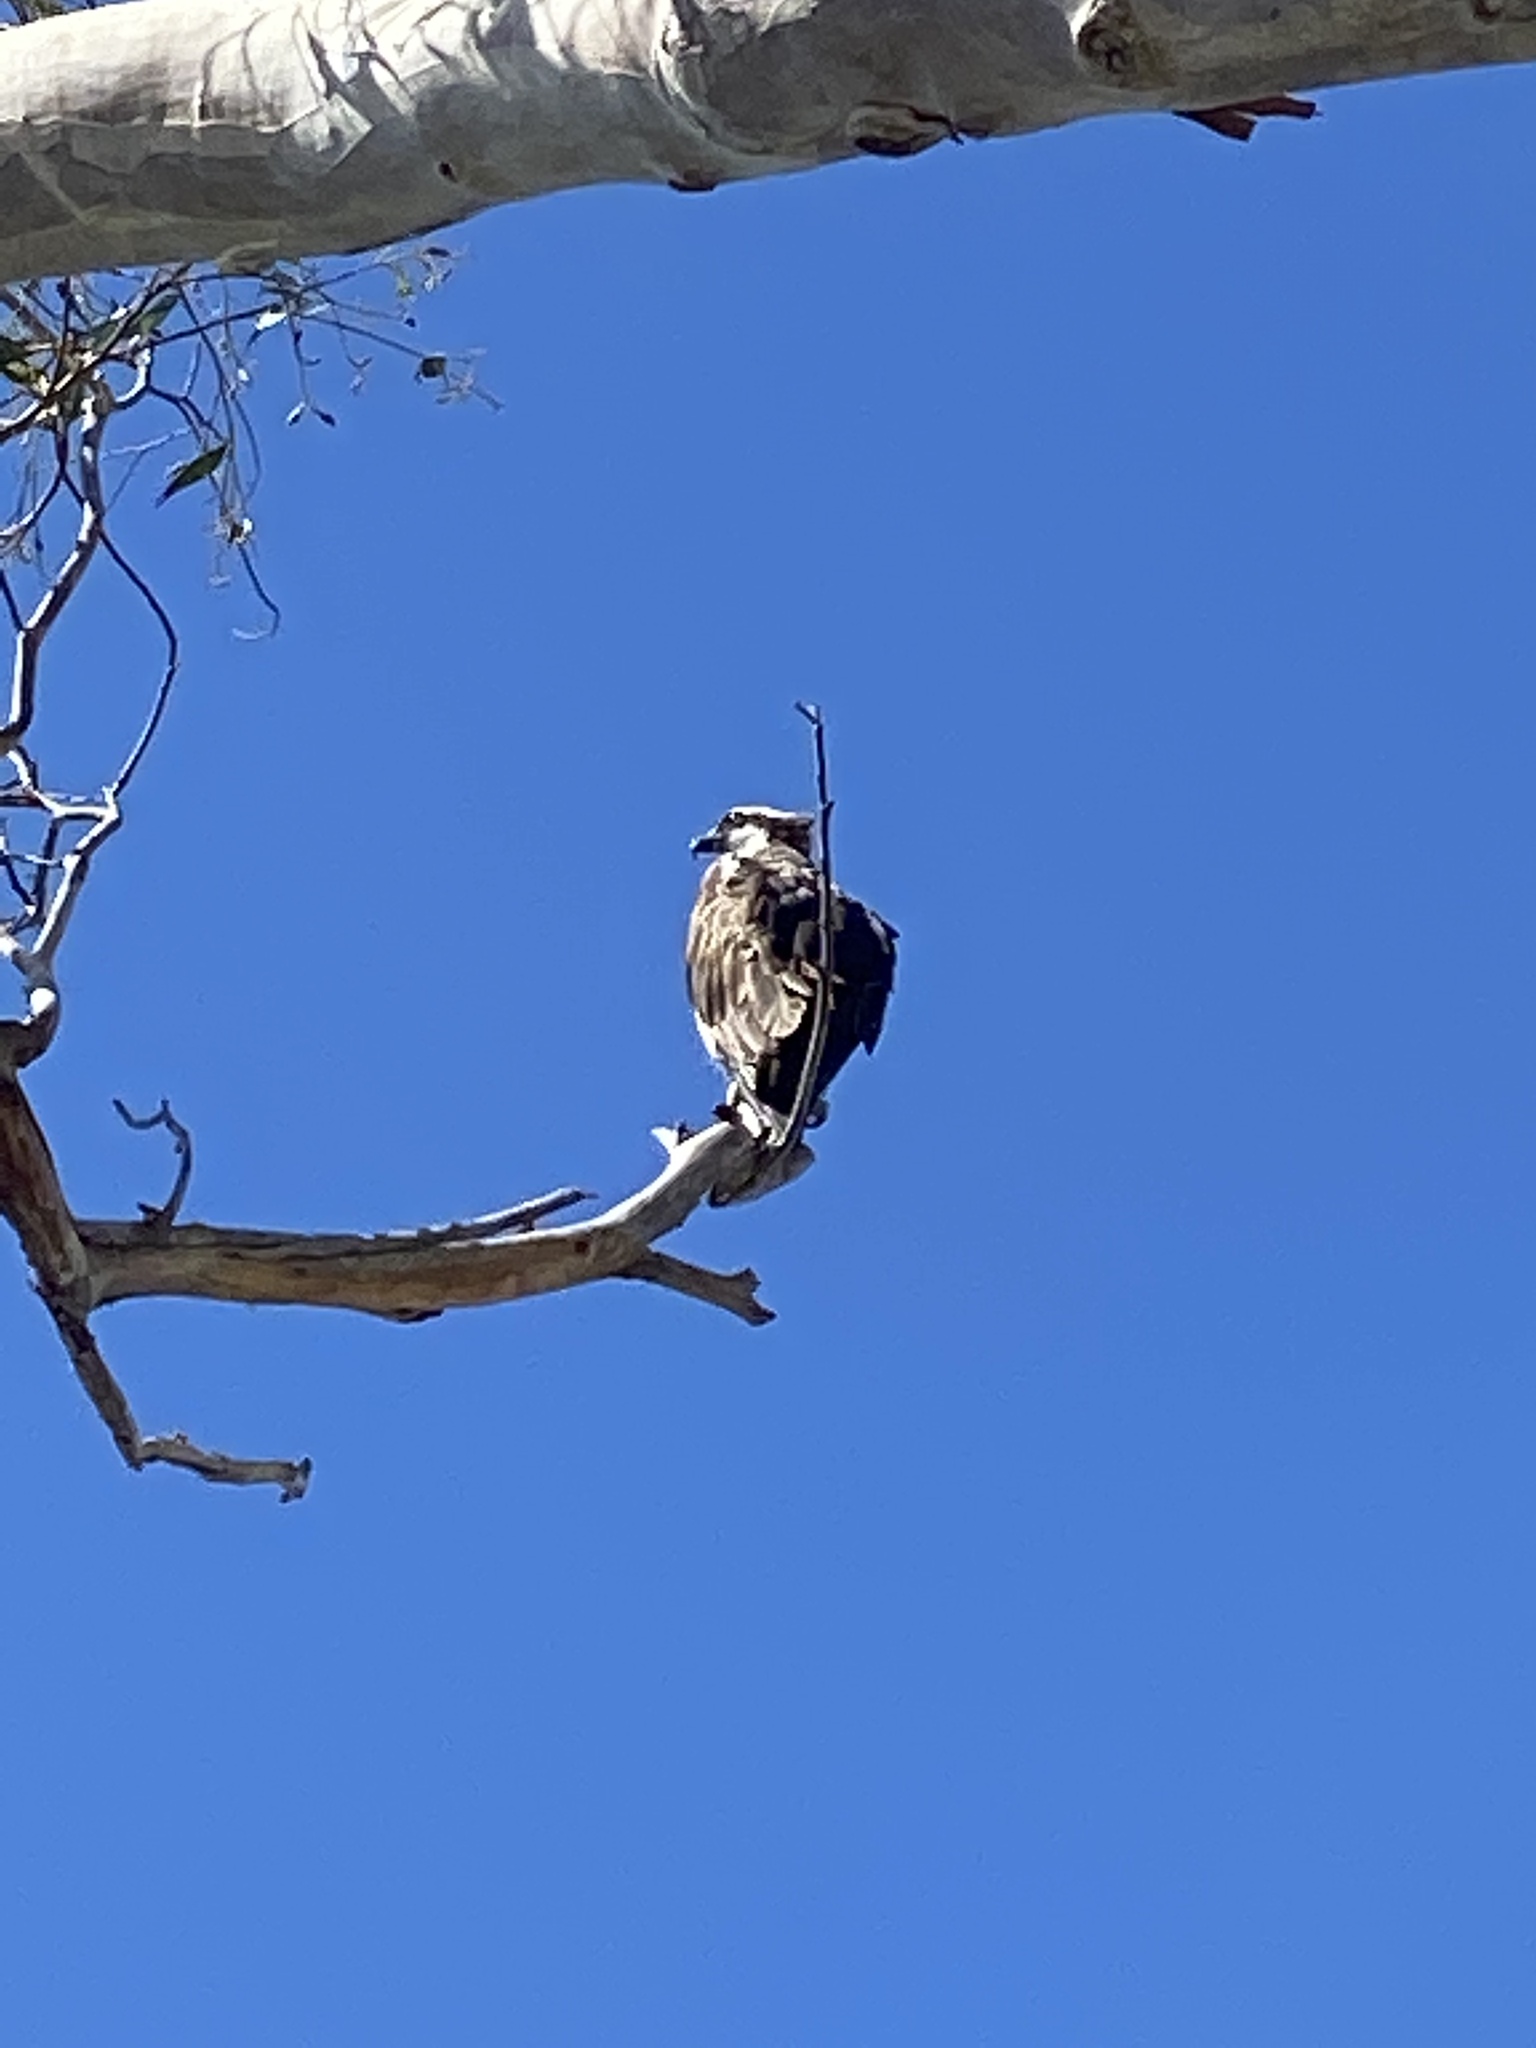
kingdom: Animalia
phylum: Chordata
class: Aves
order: Accipitriformes
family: Pandionidae
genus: Pandion
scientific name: Pandion haliaetus
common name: Osprey
